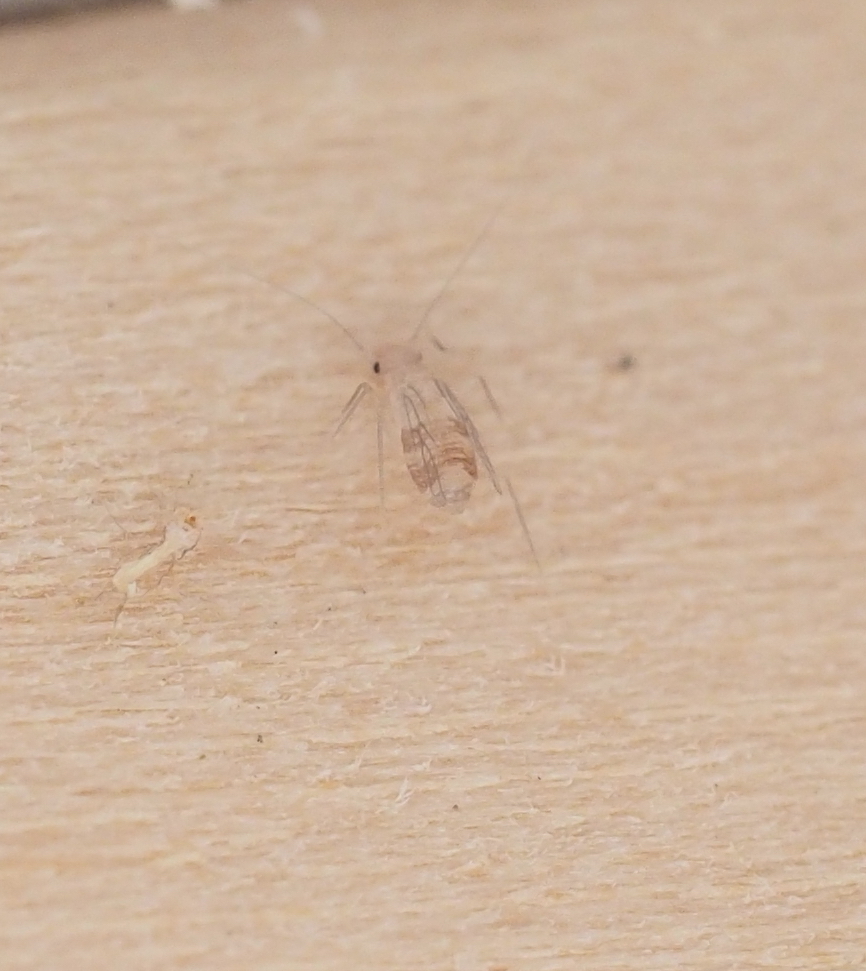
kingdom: Animalia
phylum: Arthropoda
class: Insecta
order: Psocodea
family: Psyllipsocidae
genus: Dorypteryx
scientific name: Dorypteryx domestica
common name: Cave barklouse
